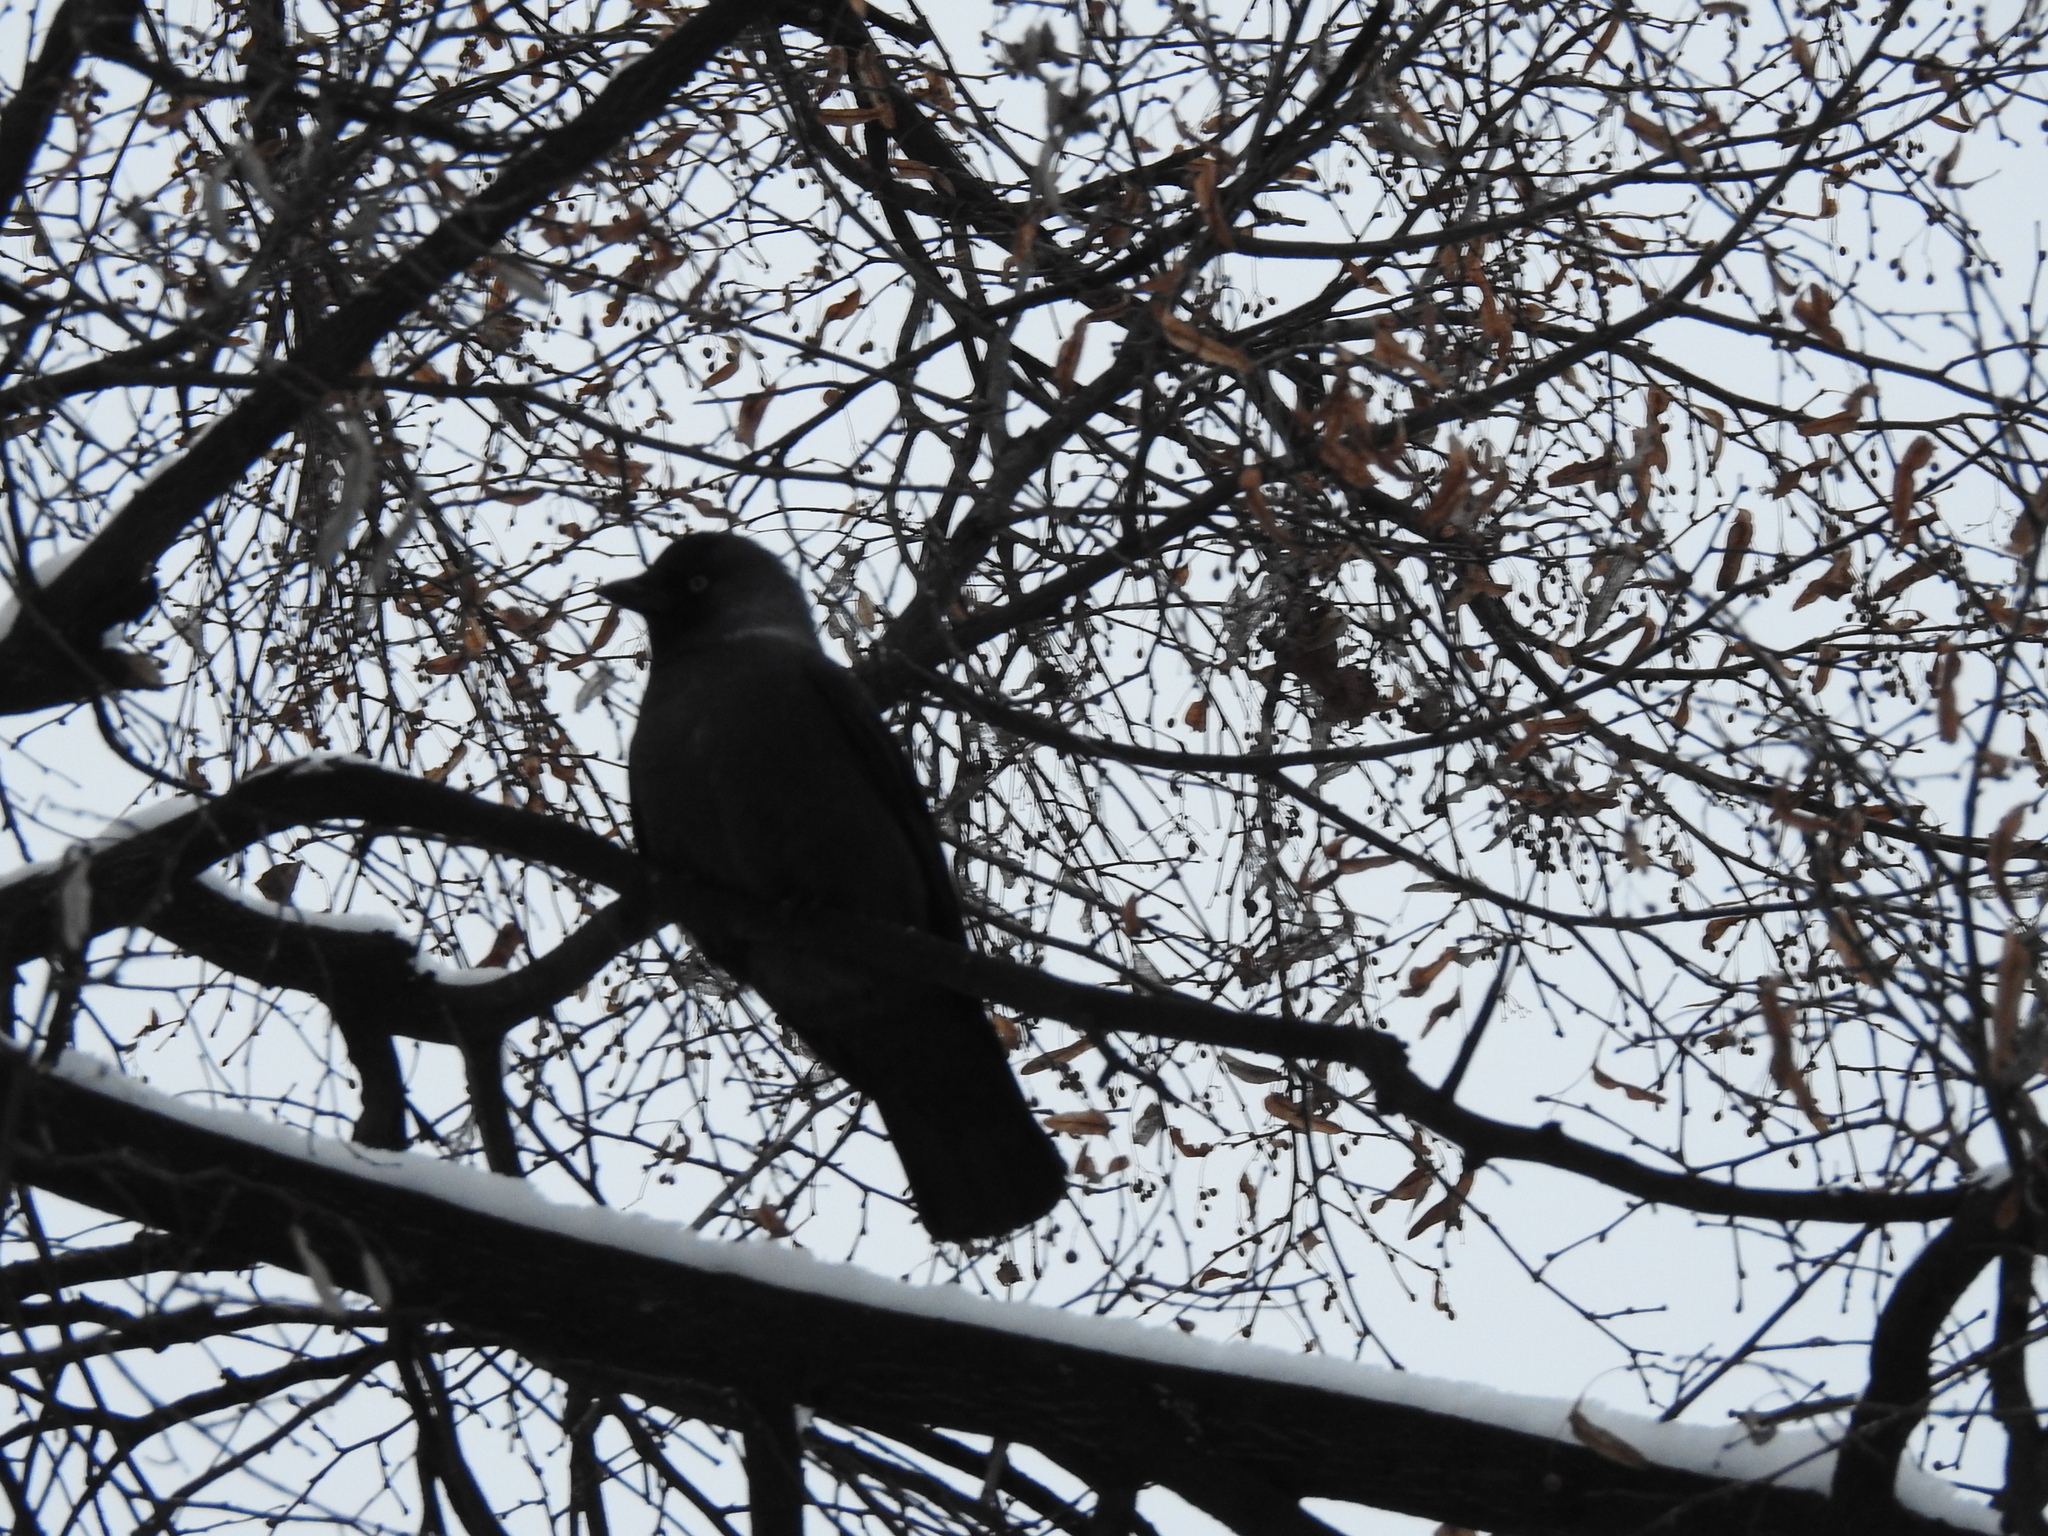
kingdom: Animalia
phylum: Chordata
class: Aves
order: Passeriformes
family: Corvidae
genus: Coloeus
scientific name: Coloeus monedula
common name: Western jackdaw
